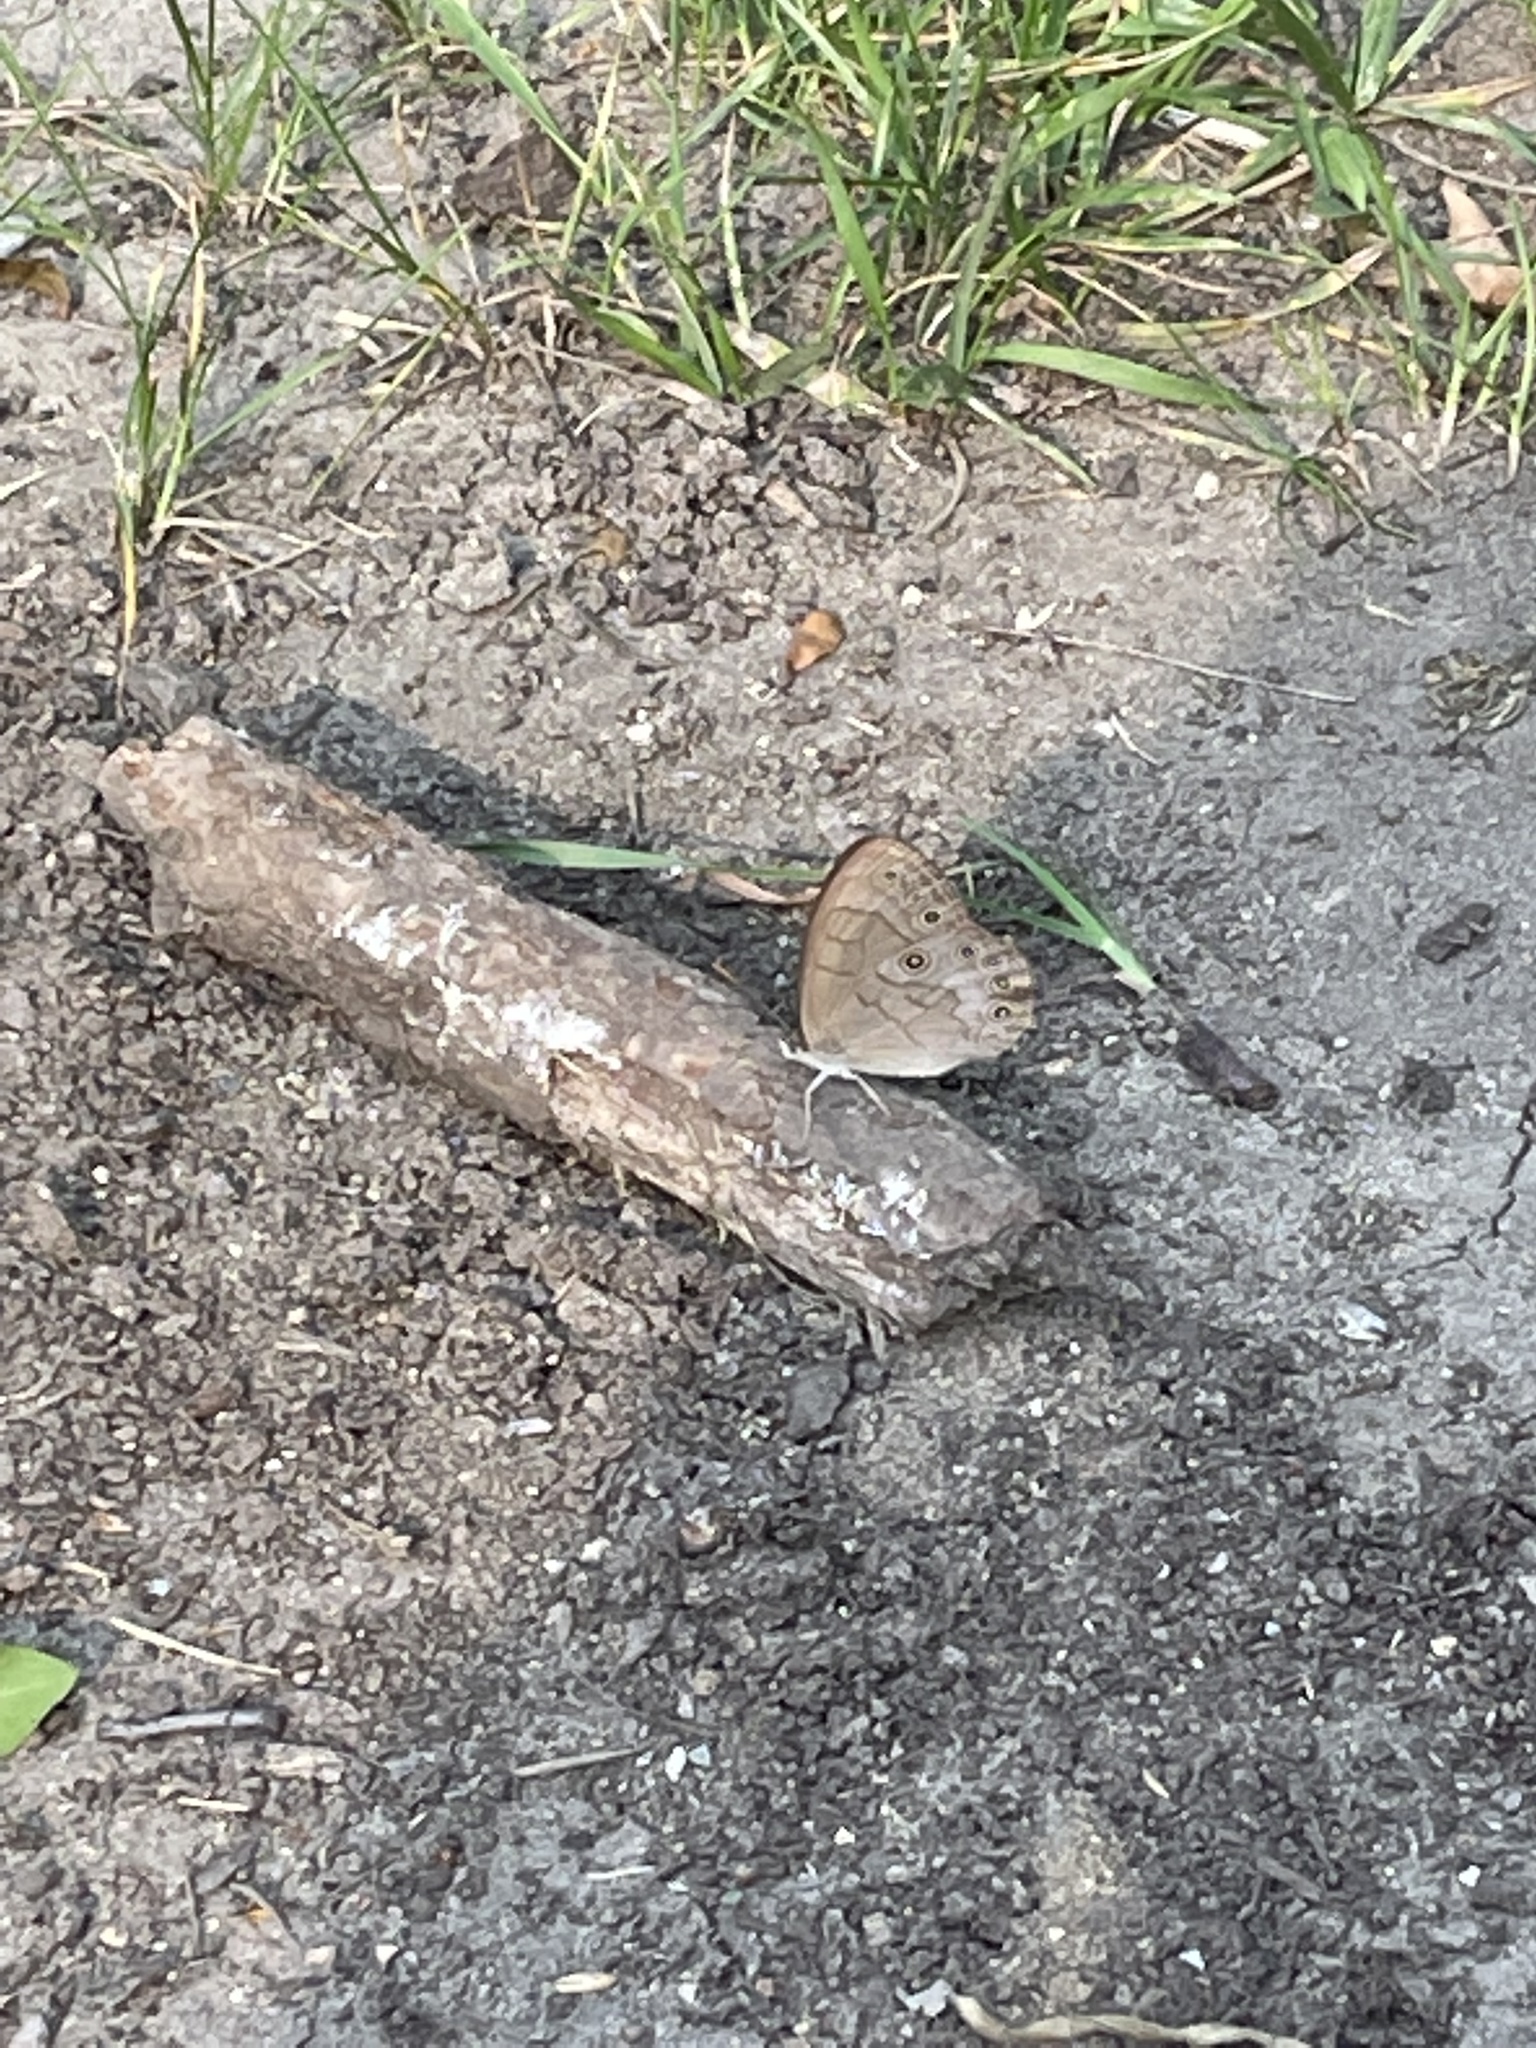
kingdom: Animalia
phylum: Arthropoda
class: Insecta
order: Lepidoptera
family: Nymphalidae
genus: Lethe
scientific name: Lethe eurydice
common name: Eyed brown
